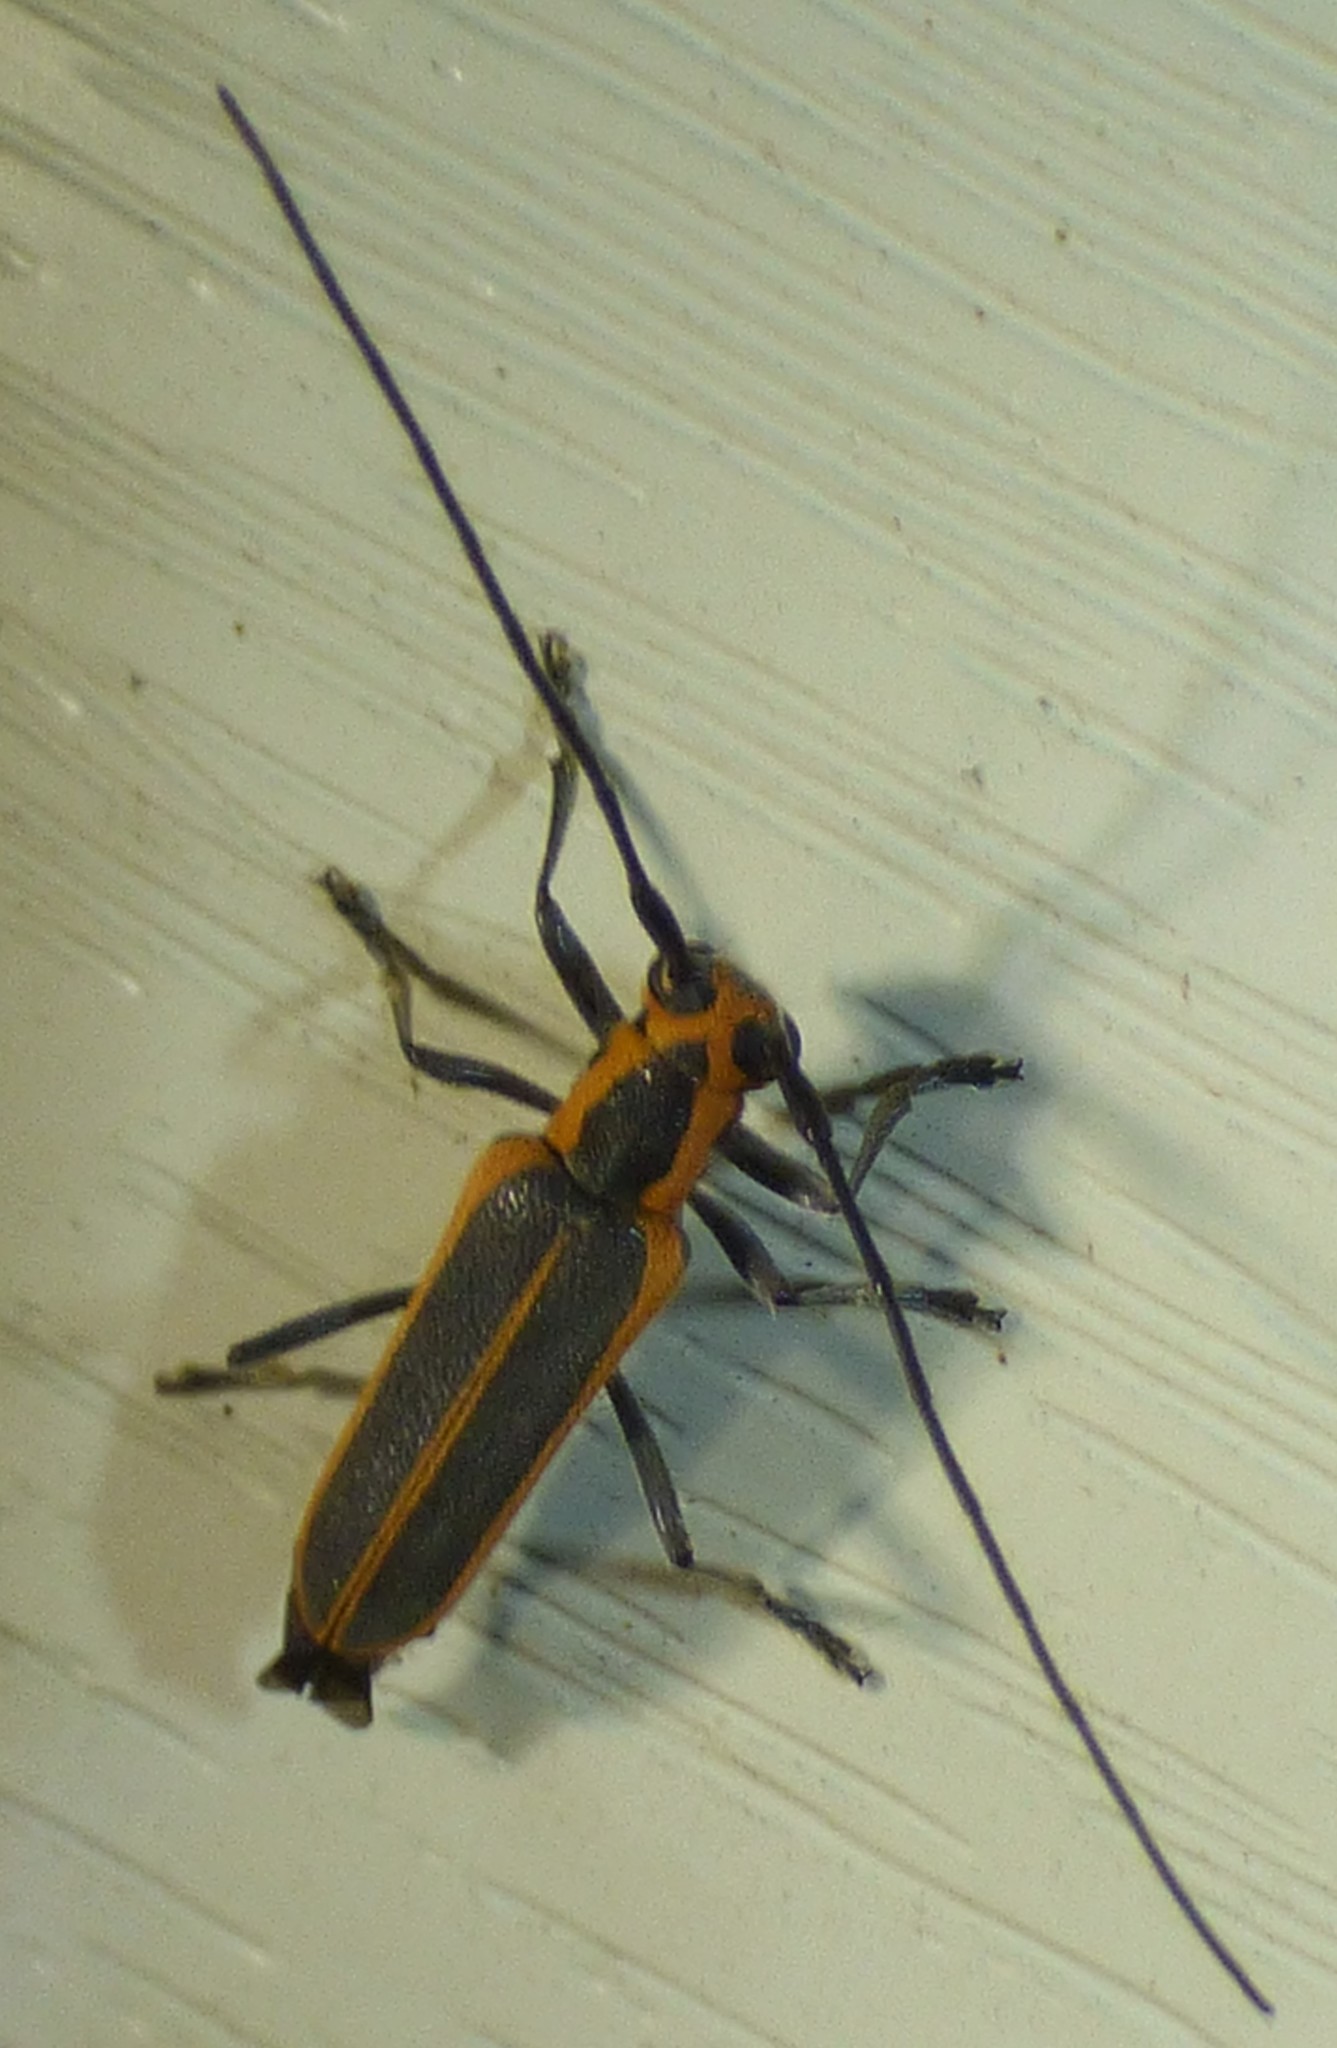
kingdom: Animalia
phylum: Arthropoda
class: Insecta
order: Coleoptera
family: Cerambycidae
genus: Saperda
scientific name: Saperda lateralis
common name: Red-edged saperda
